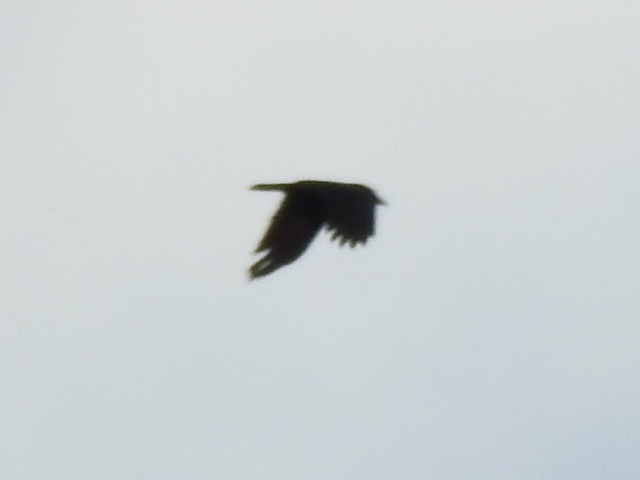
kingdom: Animalia
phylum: Chordata
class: Aves
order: Passeriformes
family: Corvidae
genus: Corvus
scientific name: Corvus brachyrhynchos
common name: American crow
